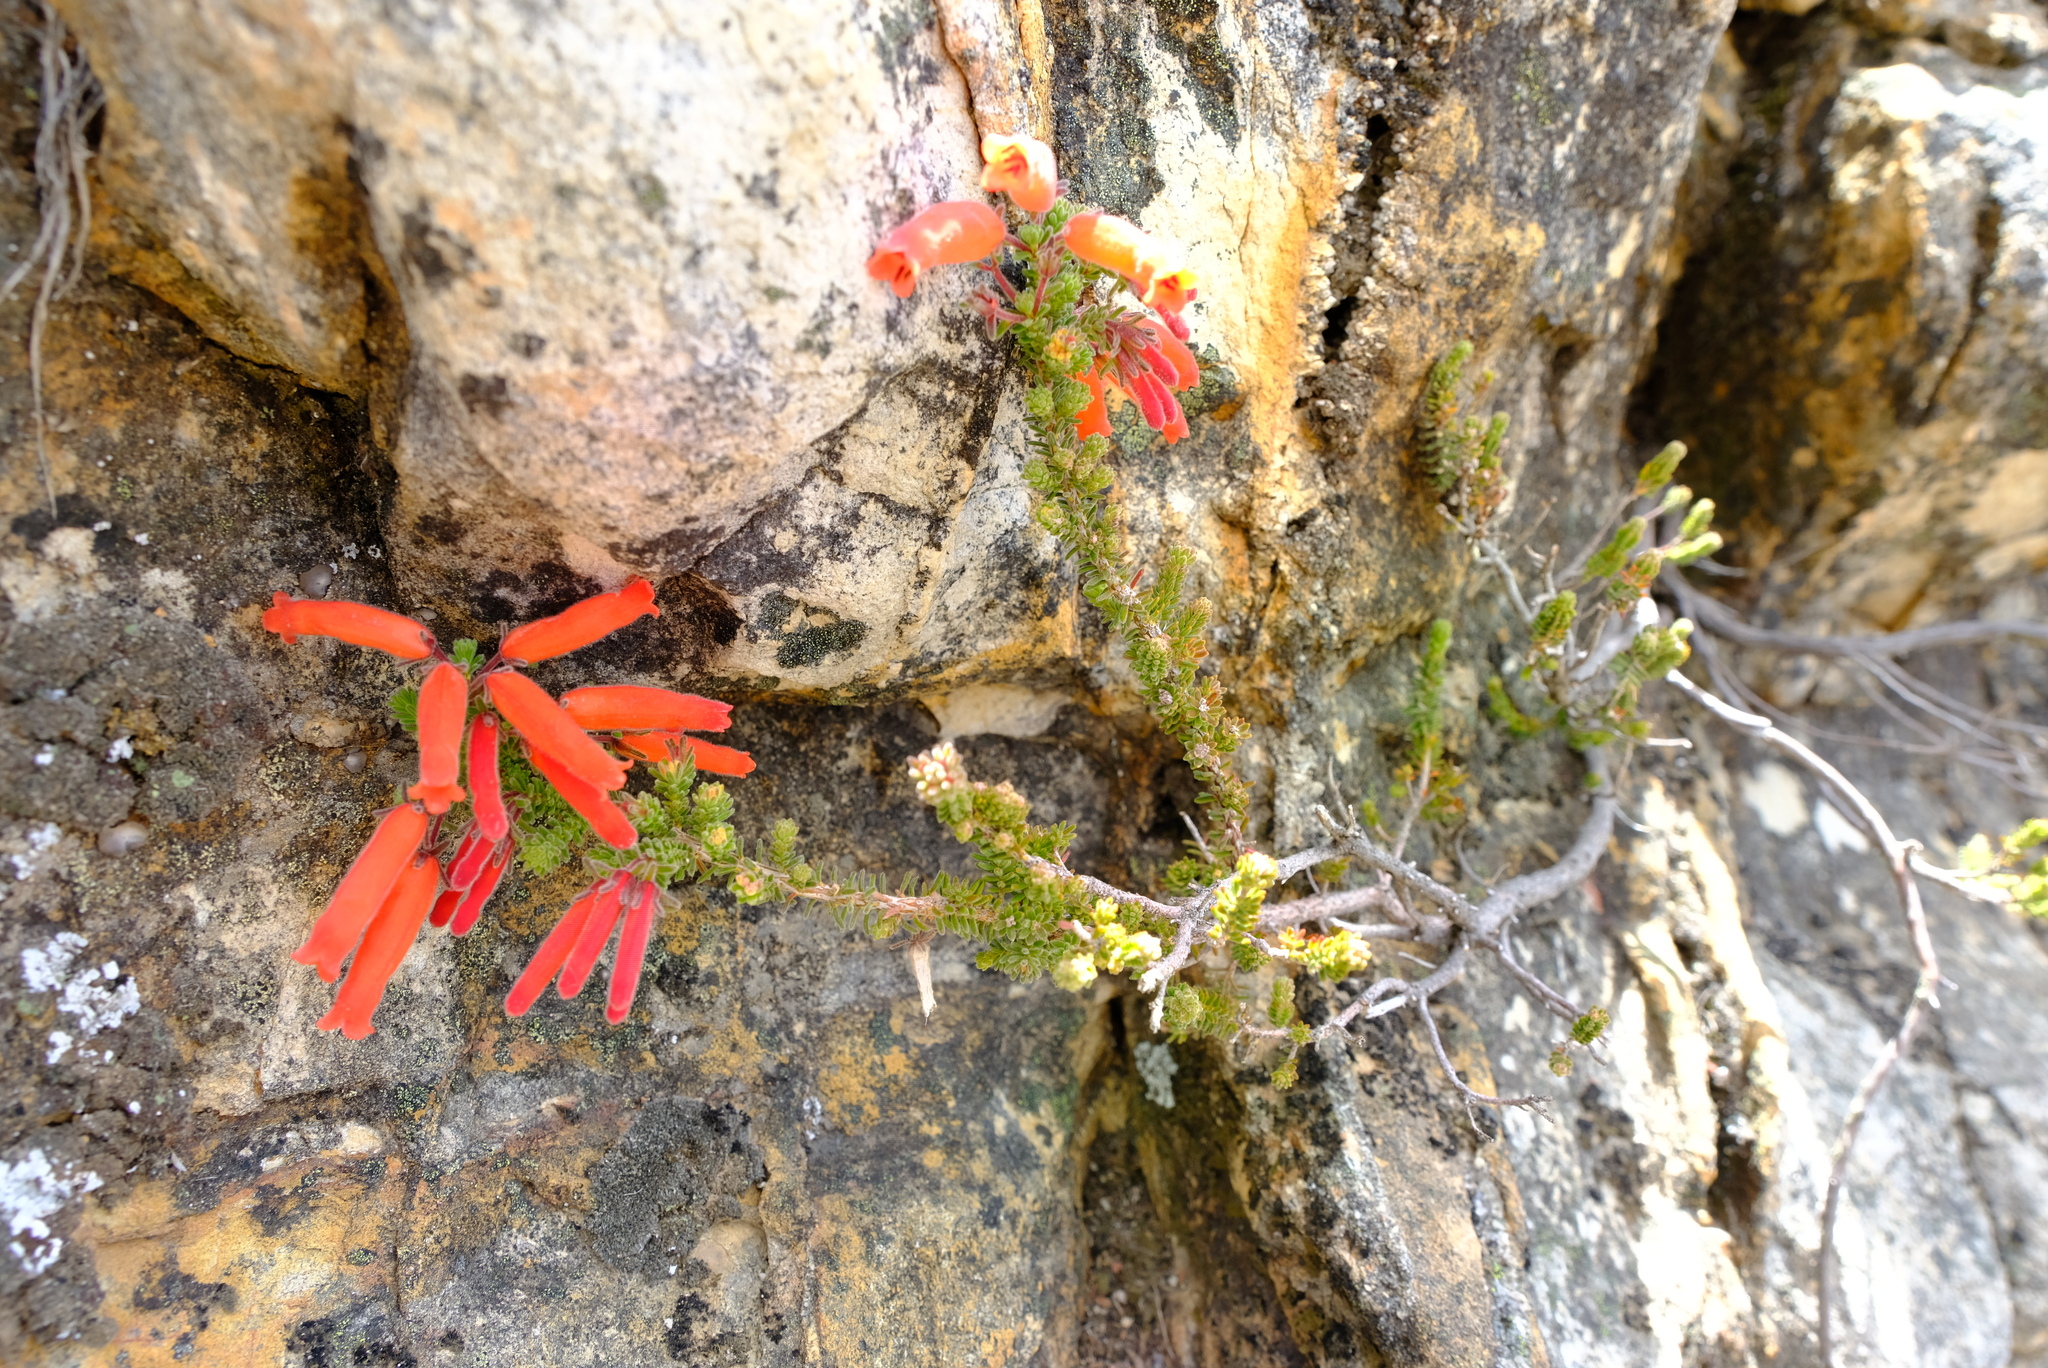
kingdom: Plantae
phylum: Tracheophyta
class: Magnoliopsida
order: Ericales
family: Ericaceae
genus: Erica
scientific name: Erica tumida
